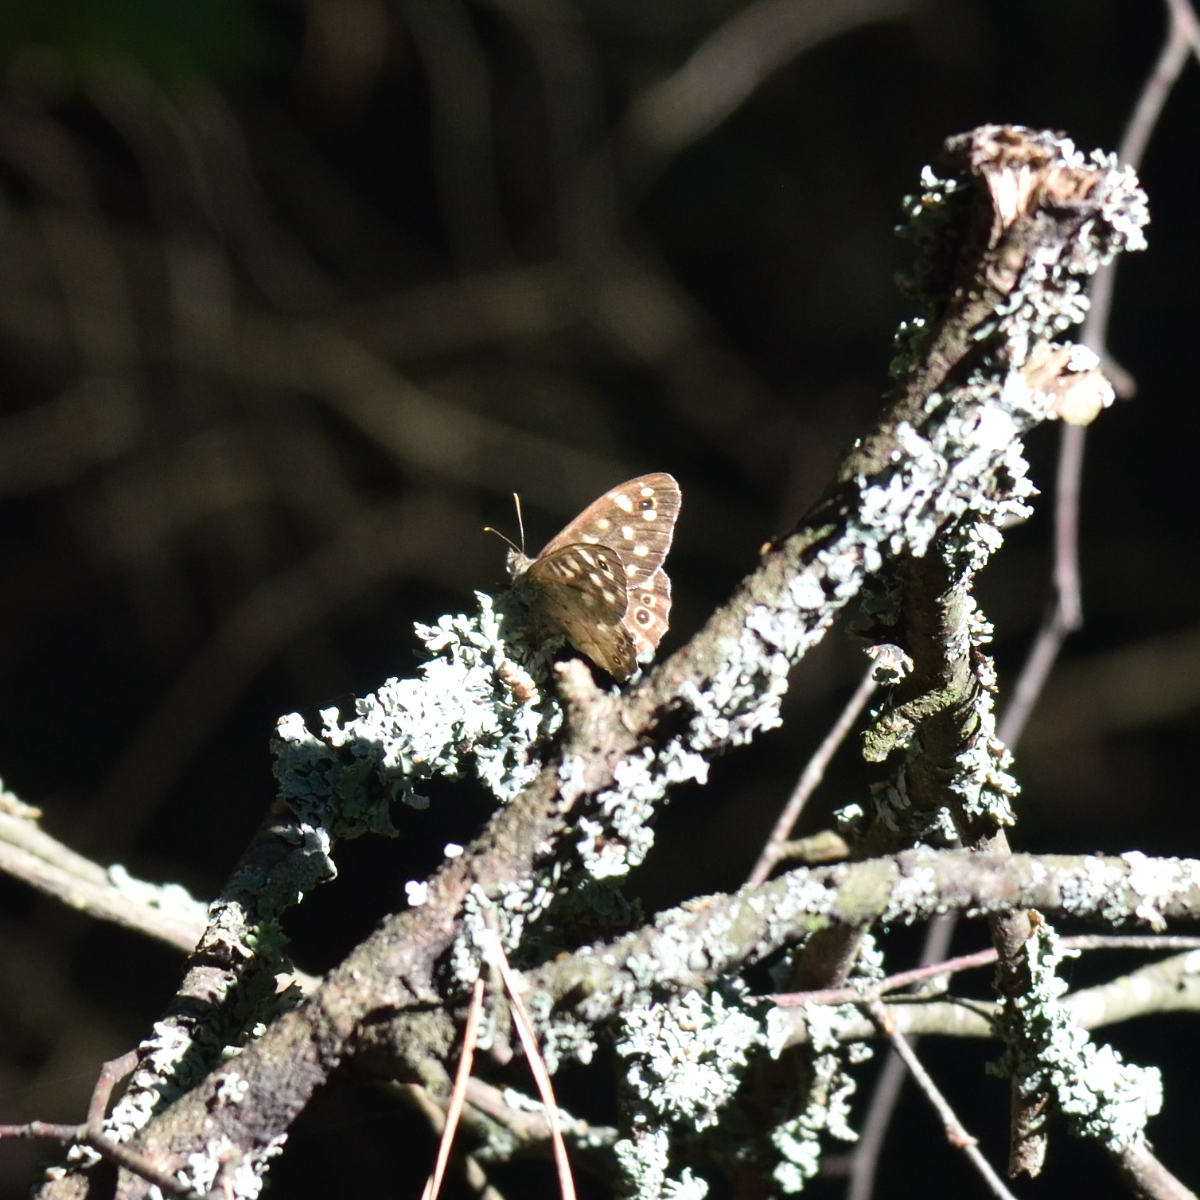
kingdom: Animalia
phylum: Arthropoda
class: Insecta
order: Lepidoptera
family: Nymphalidae
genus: Pararge
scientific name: Pararge aegeria
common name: Speckled wood
